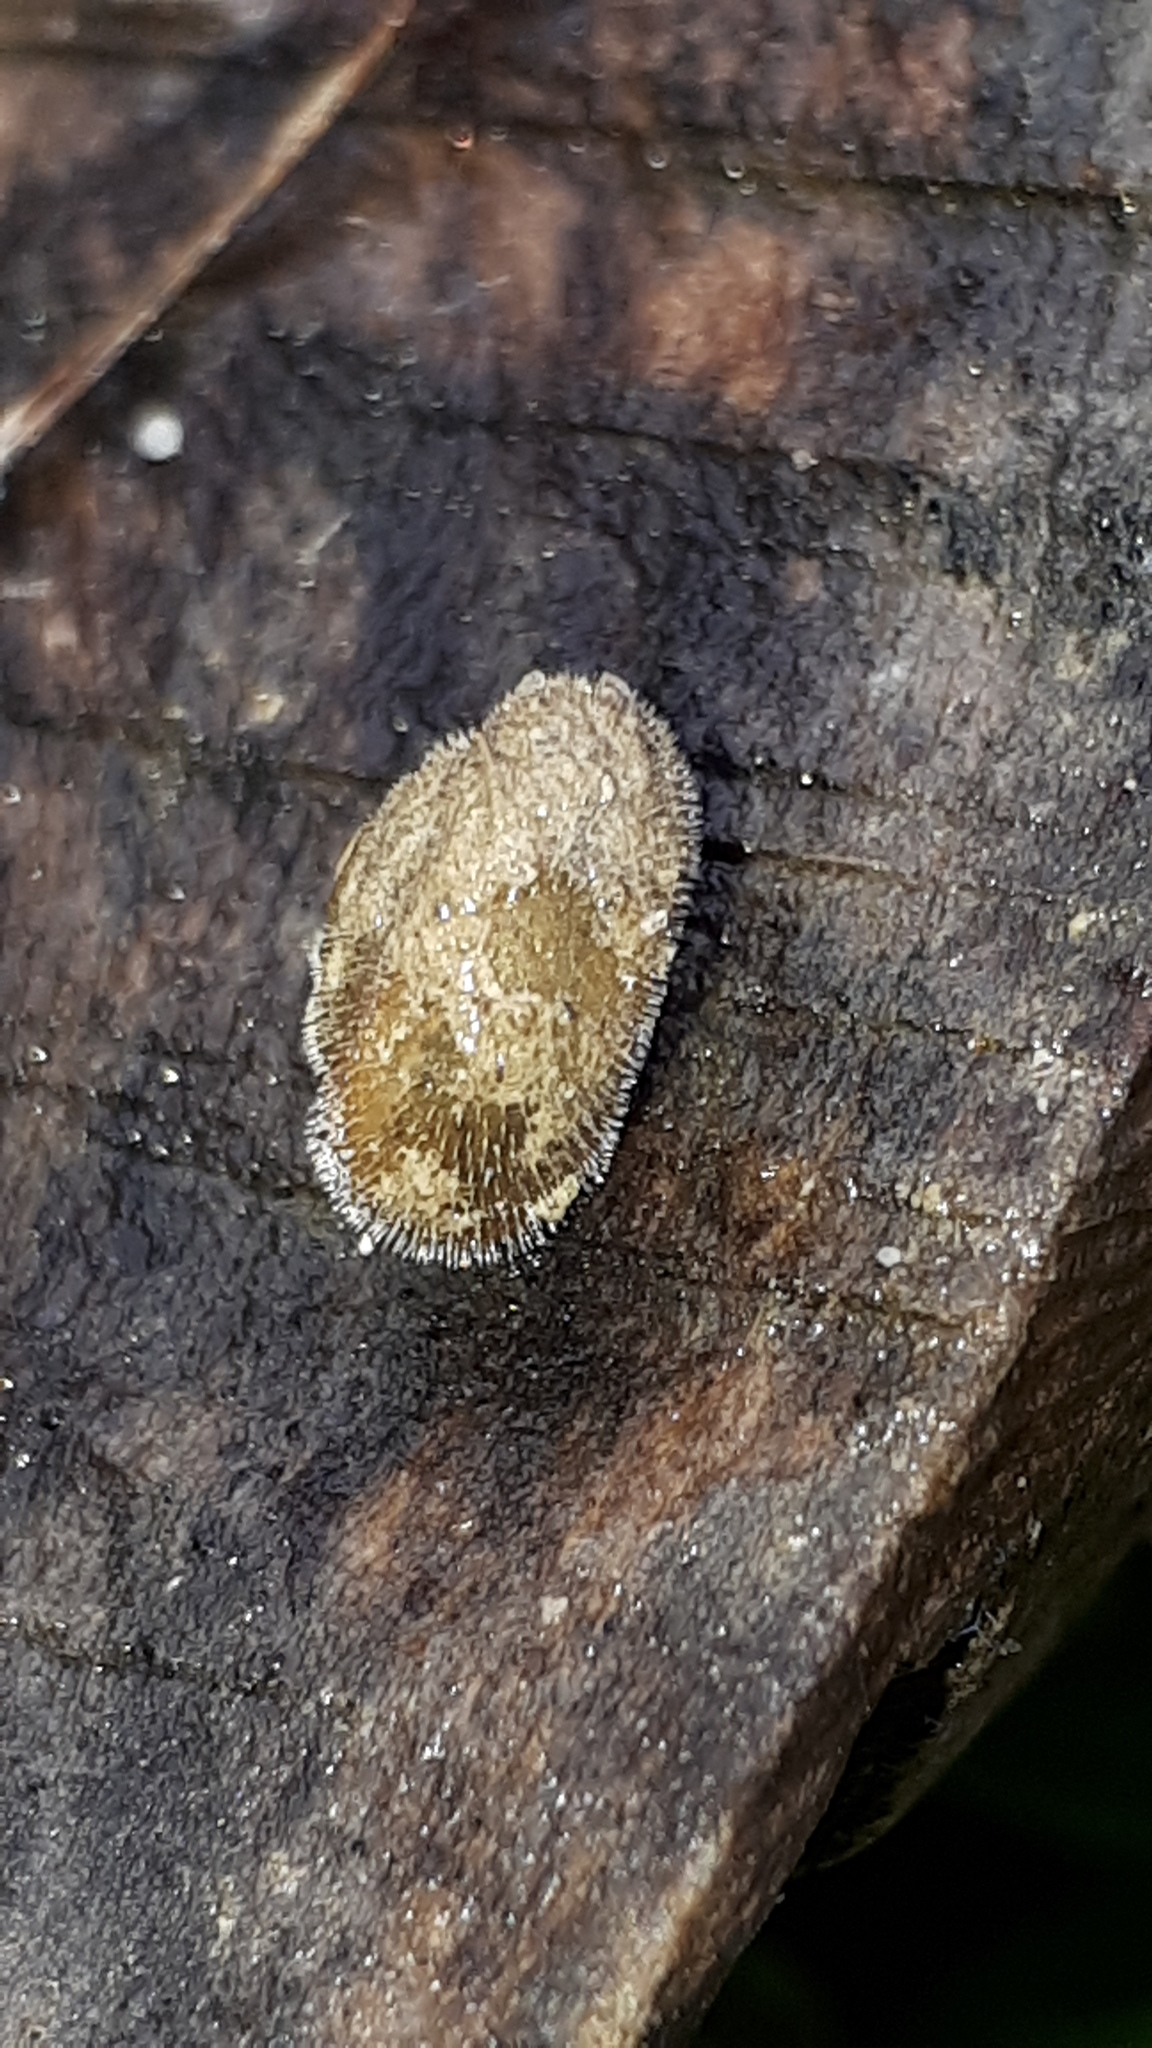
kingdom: Animalia
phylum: Mollusca
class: Gastropoda
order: Stylommatophora
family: Hygromiidae
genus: Pseudotrichia
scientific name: Pseudotrichia rubiginosa
